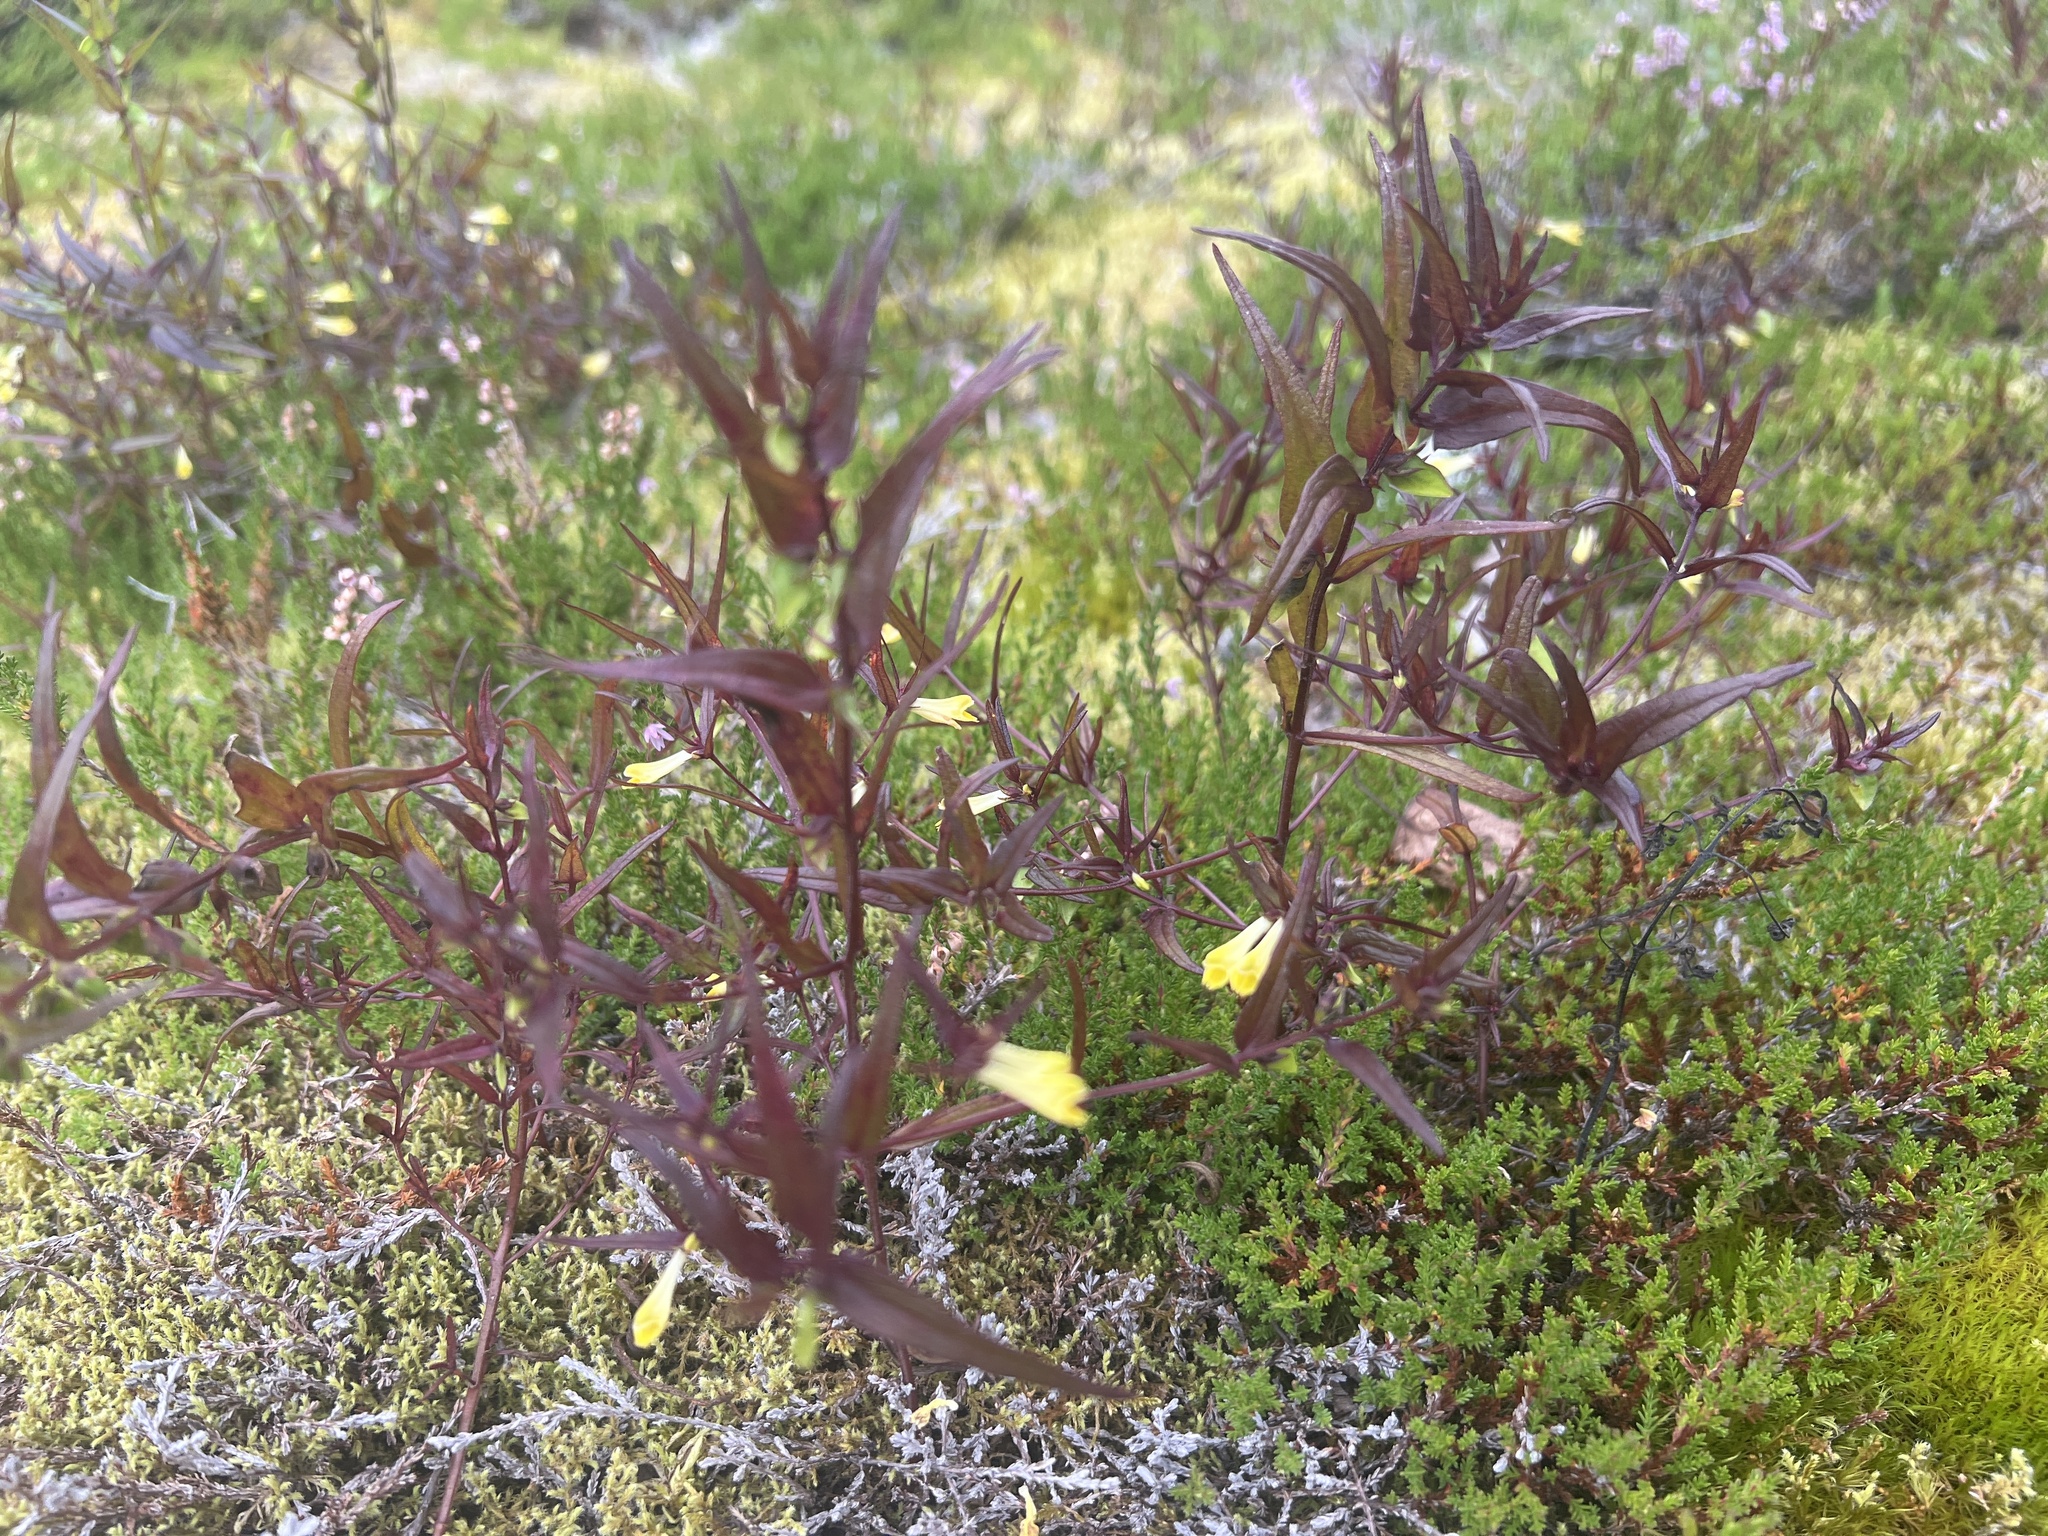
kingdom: Plantae
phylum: Tracheophyta
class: Magnoliopsida
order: Lamiales
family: Orobanchaceae
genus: Melampyrum
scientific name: Melampyrum pratense
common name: Common cow-wheat
